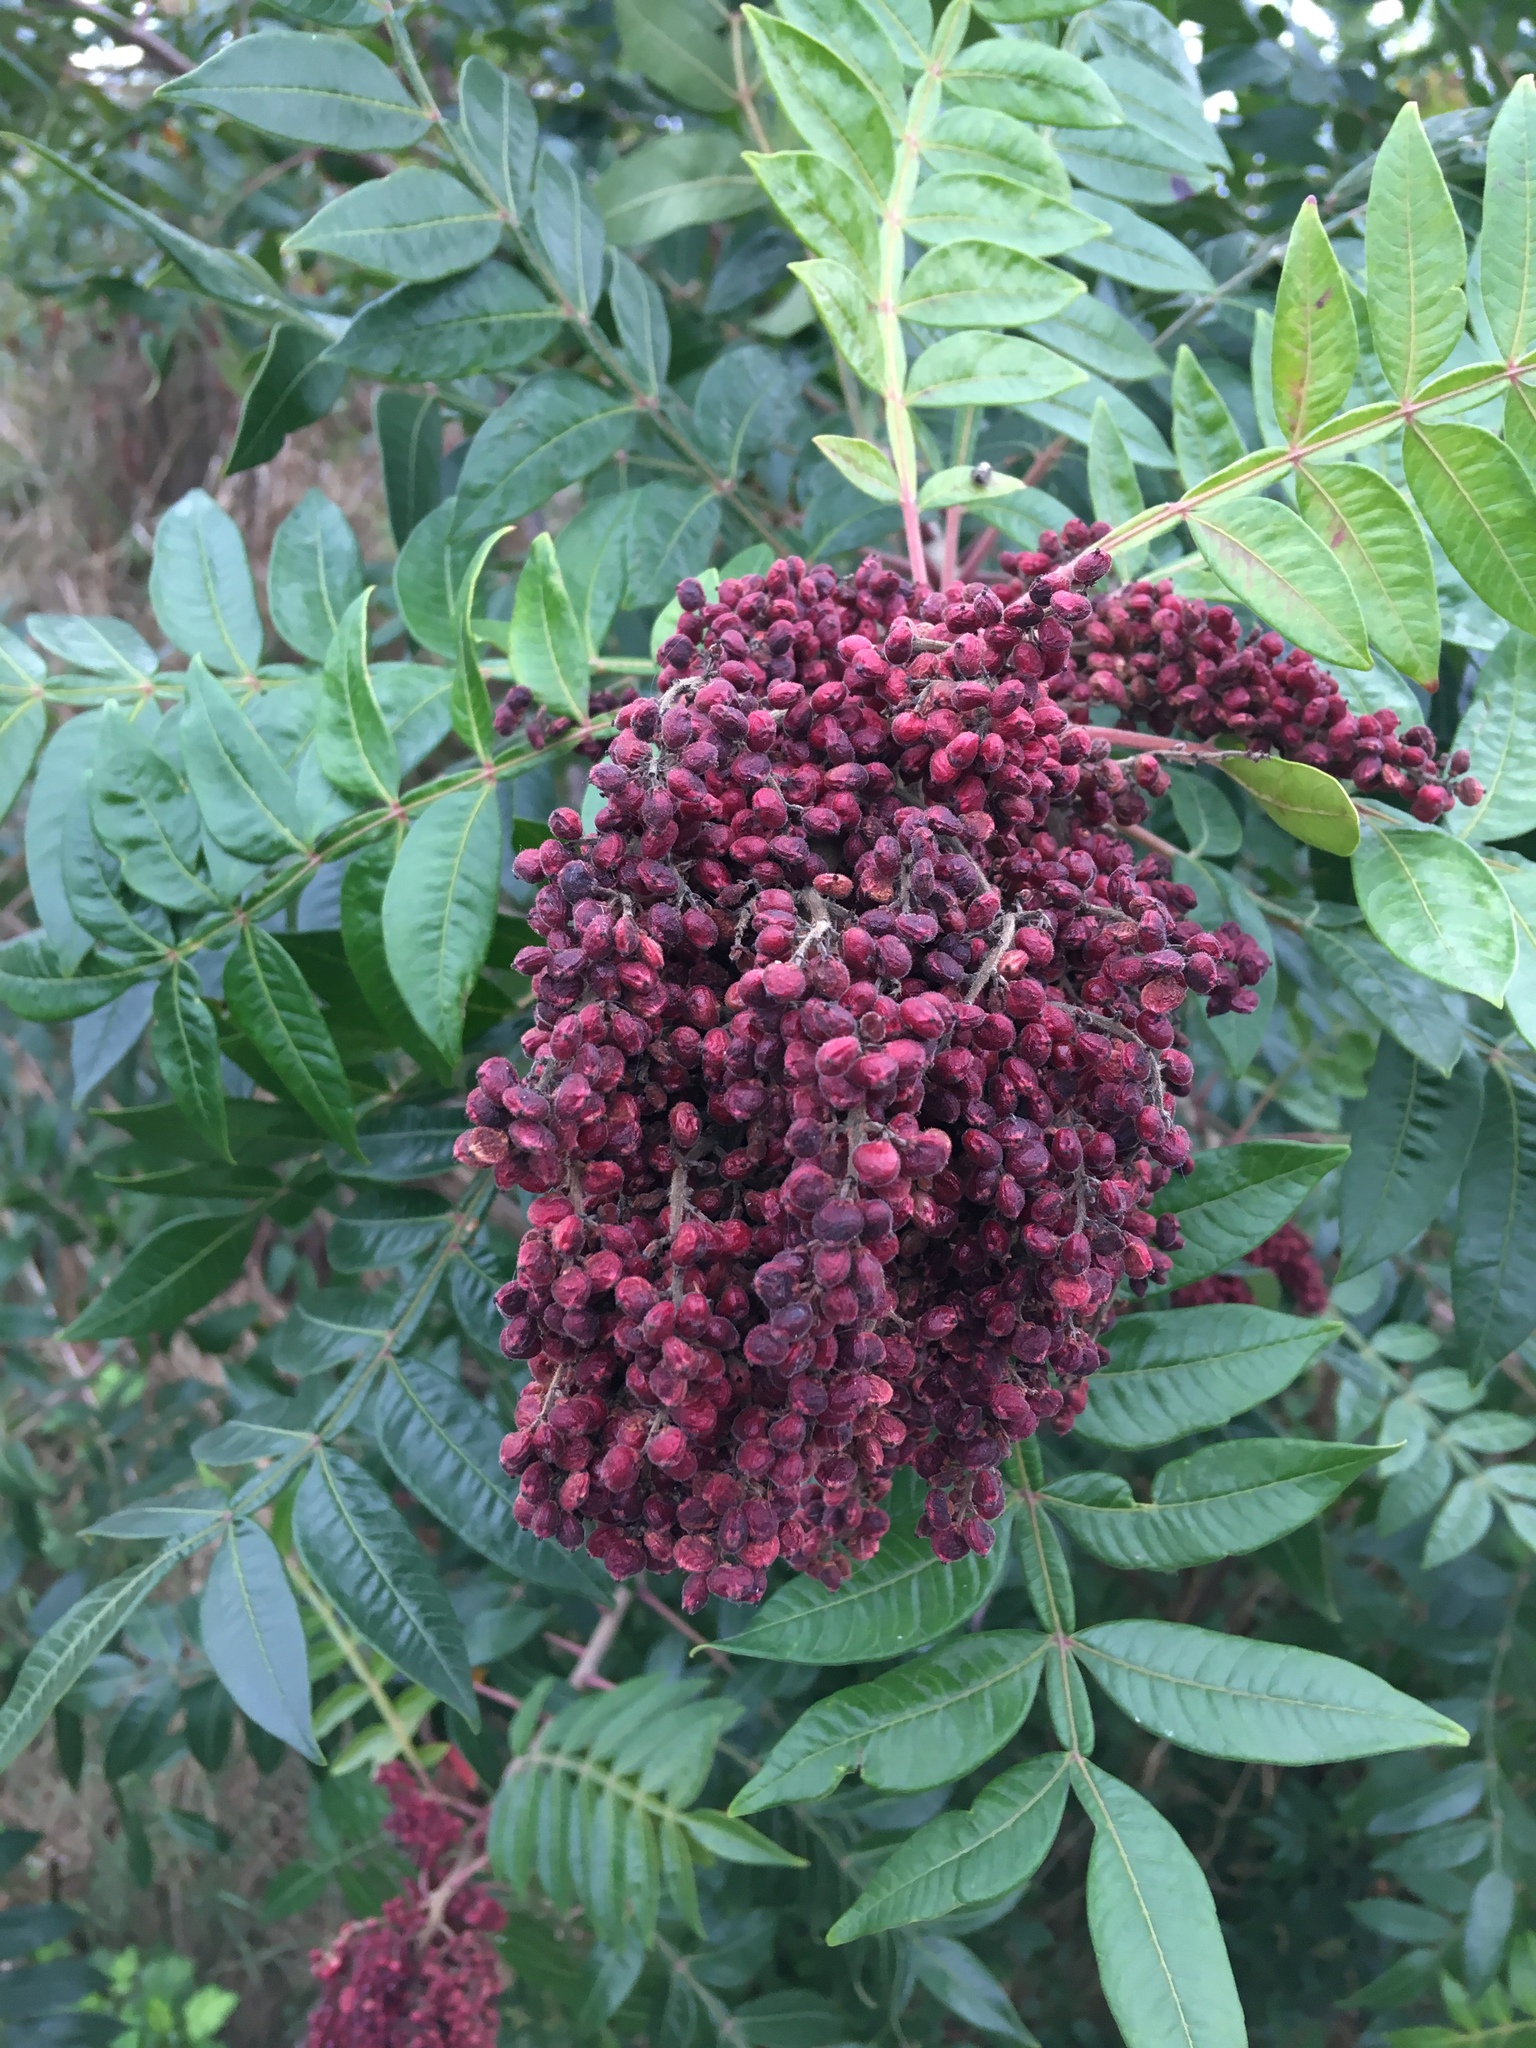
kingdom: Plantae
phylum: Tracheophyta
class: Magnoliopsida
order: Sapindales
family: Anacardiaceae
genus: Rhus
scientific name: Rhus copallina
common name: Shining sumac
